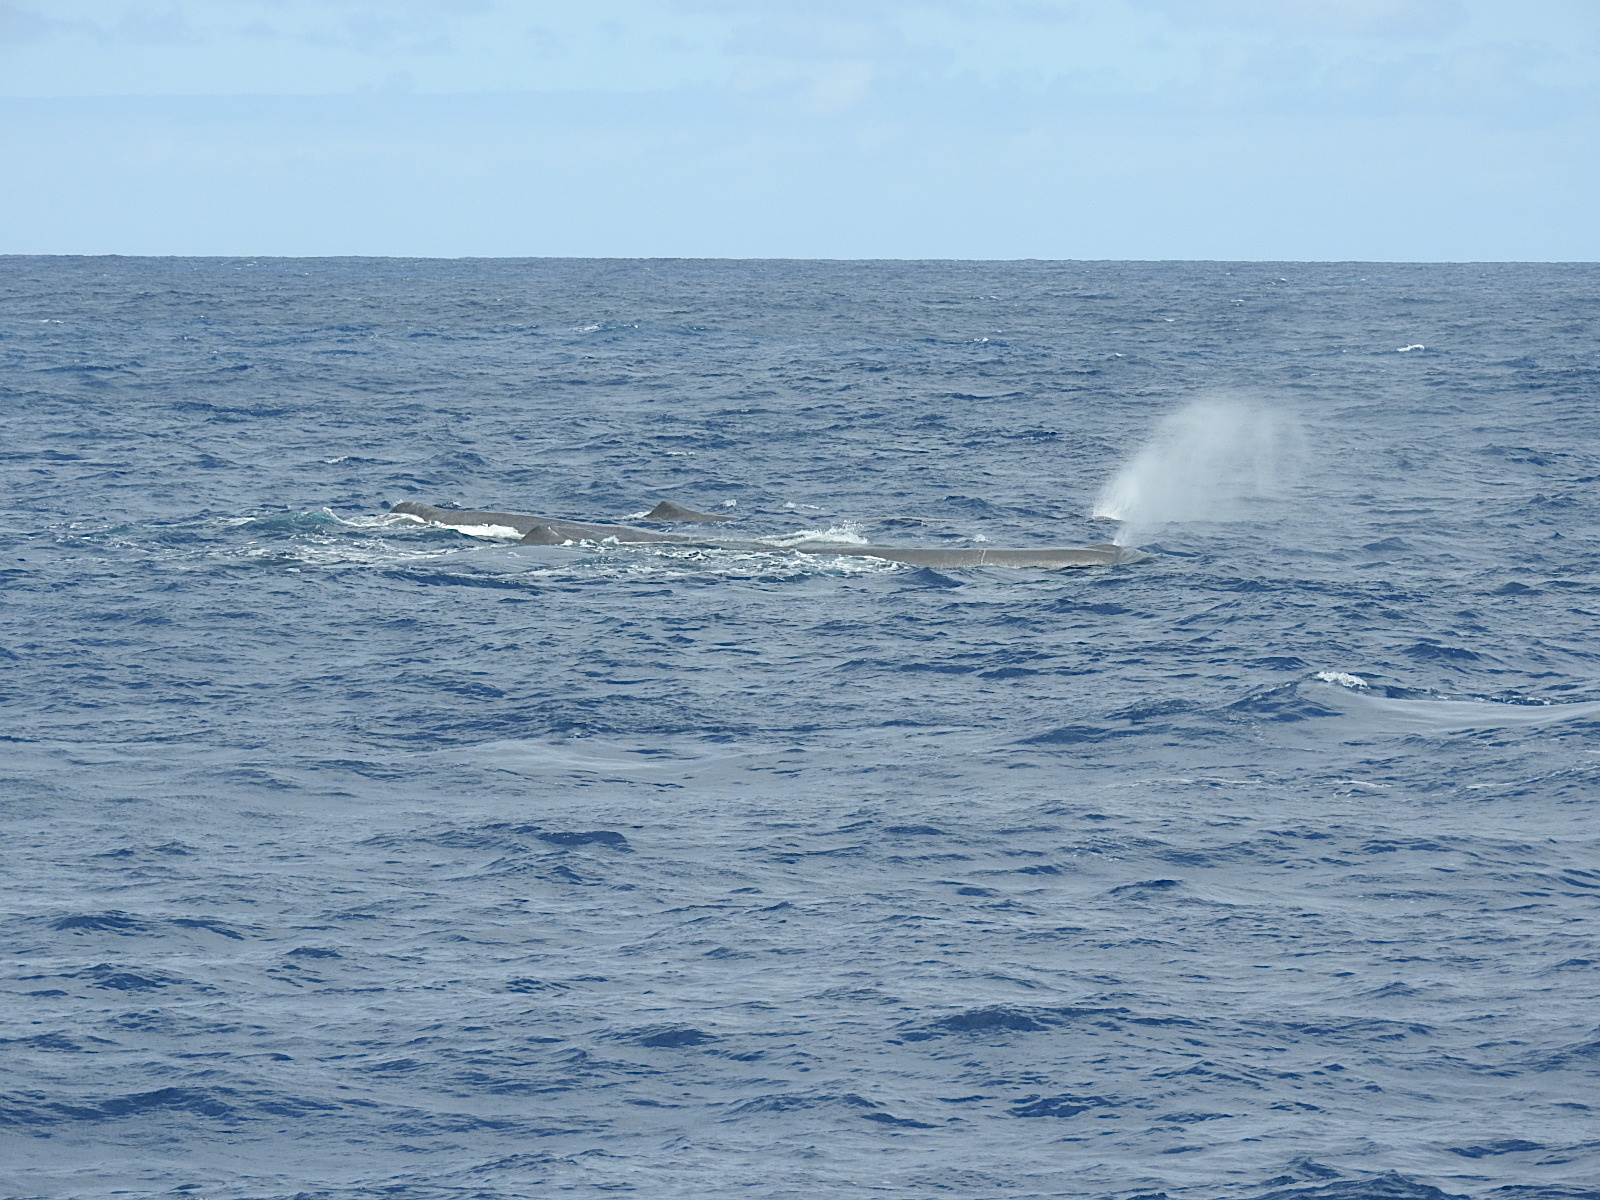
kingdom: Animalia
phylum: Chordata
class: Mammalia
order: Cetacea
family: Physeteridae
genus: Physeter
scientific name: Physeter macrocephalus
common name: Sperm whale
